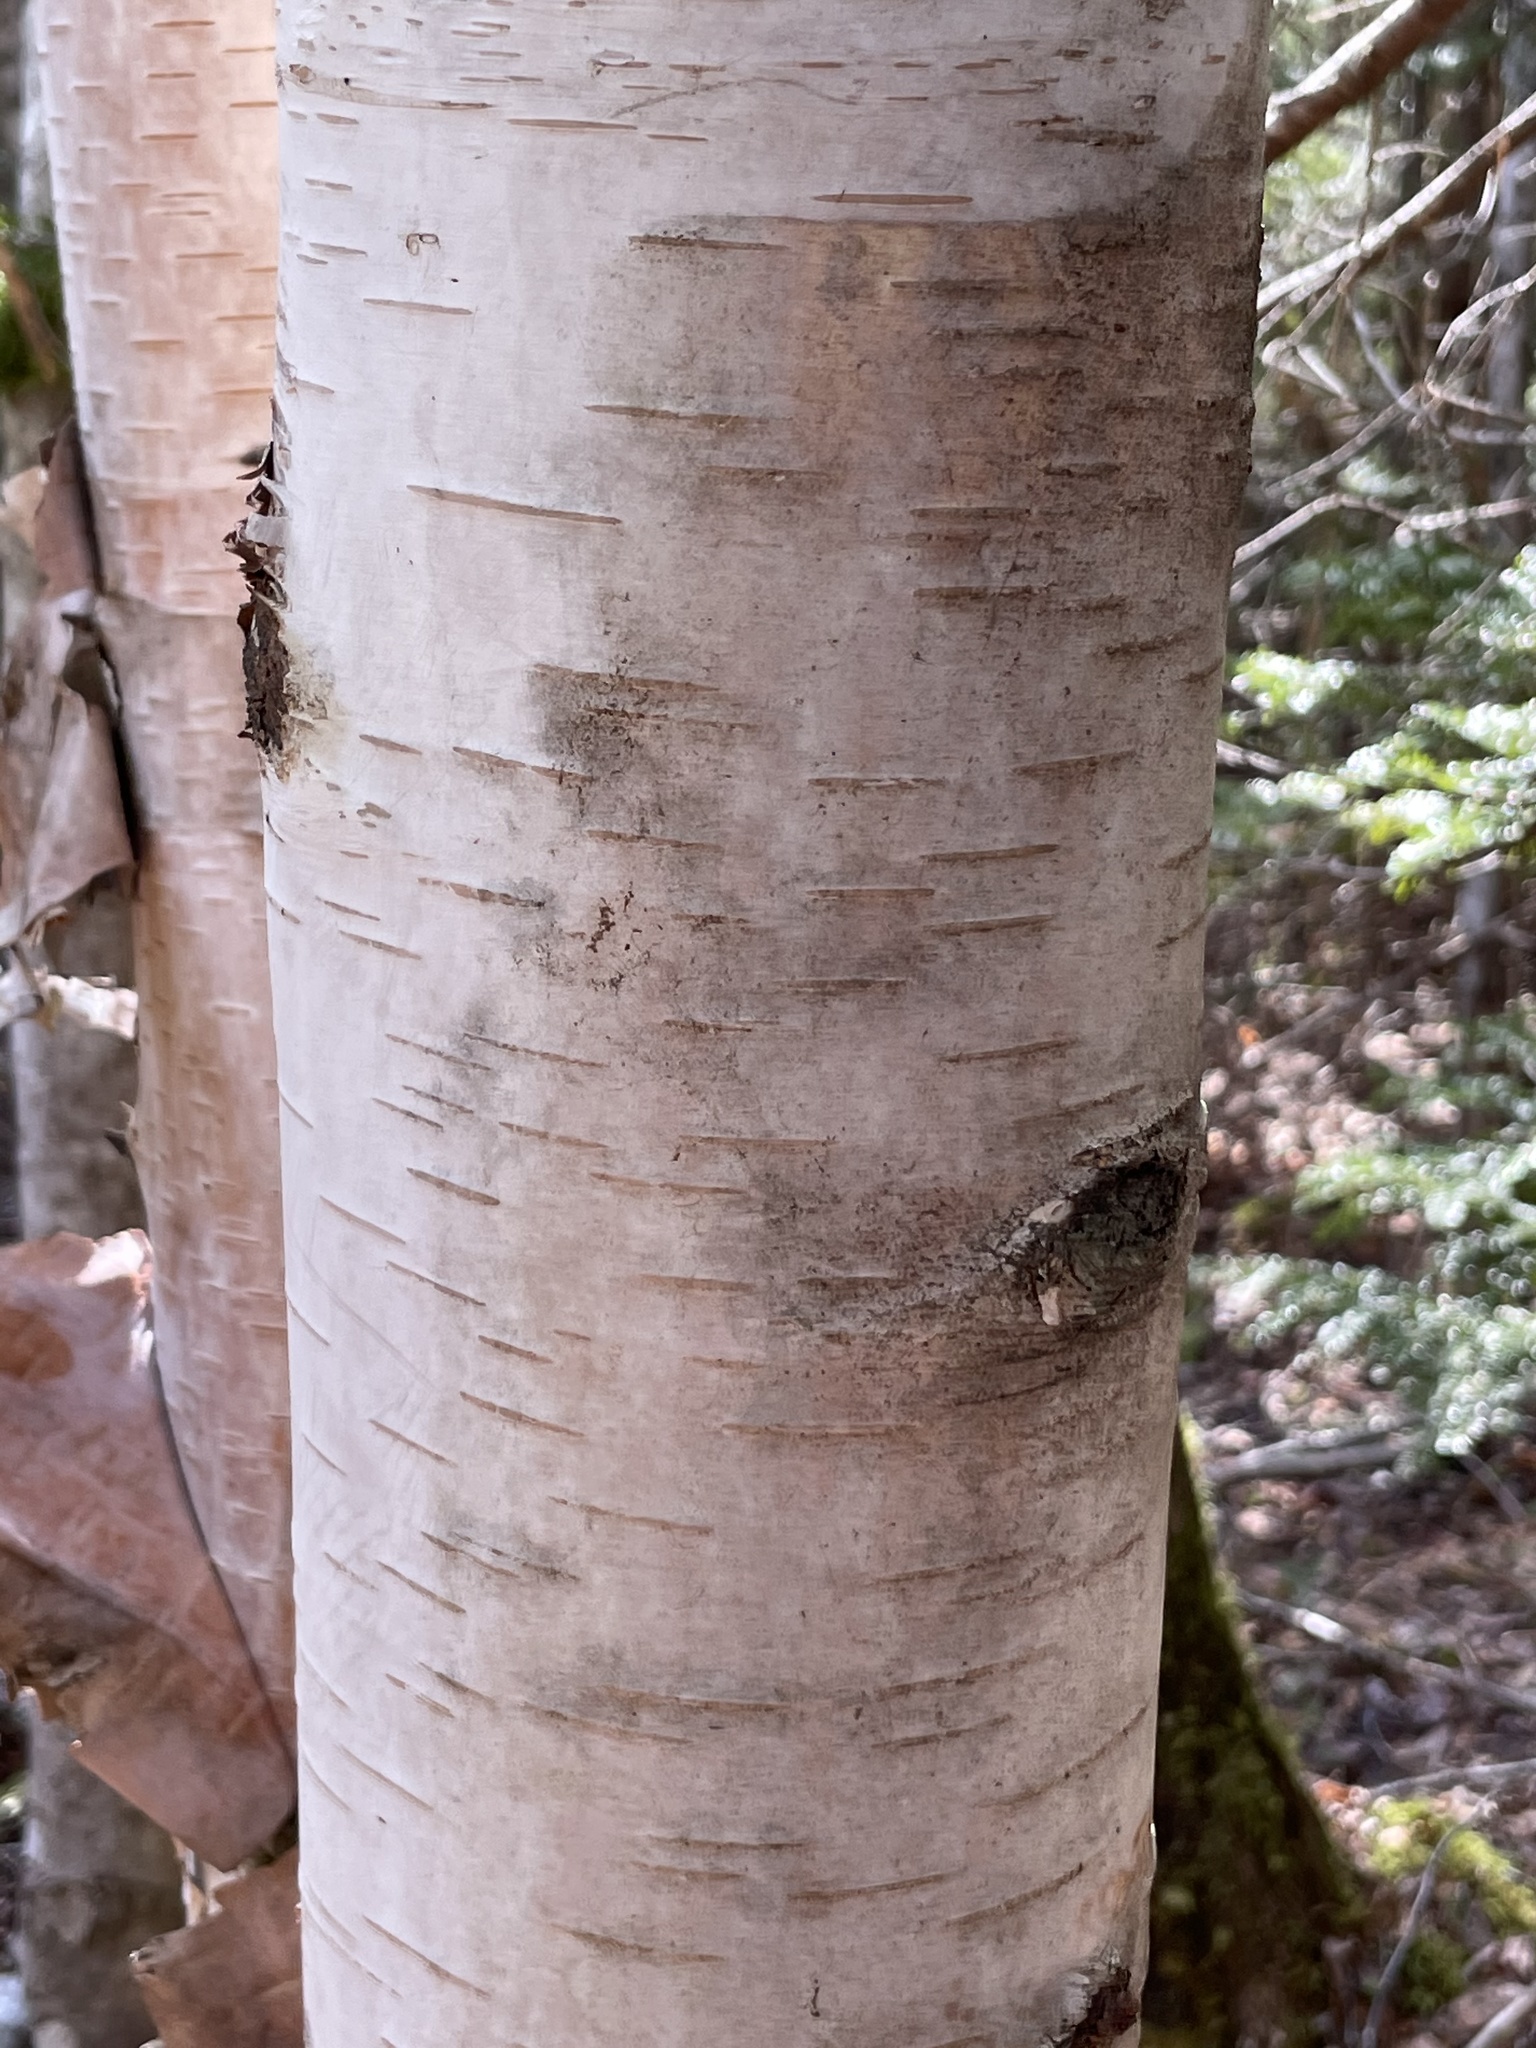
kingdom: Plantae
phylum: Tracheophyta
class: Magnoliopsida
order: Fagales
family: Betulaceae
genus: Betula
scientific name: Betula papyrifera
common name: Paper birch
